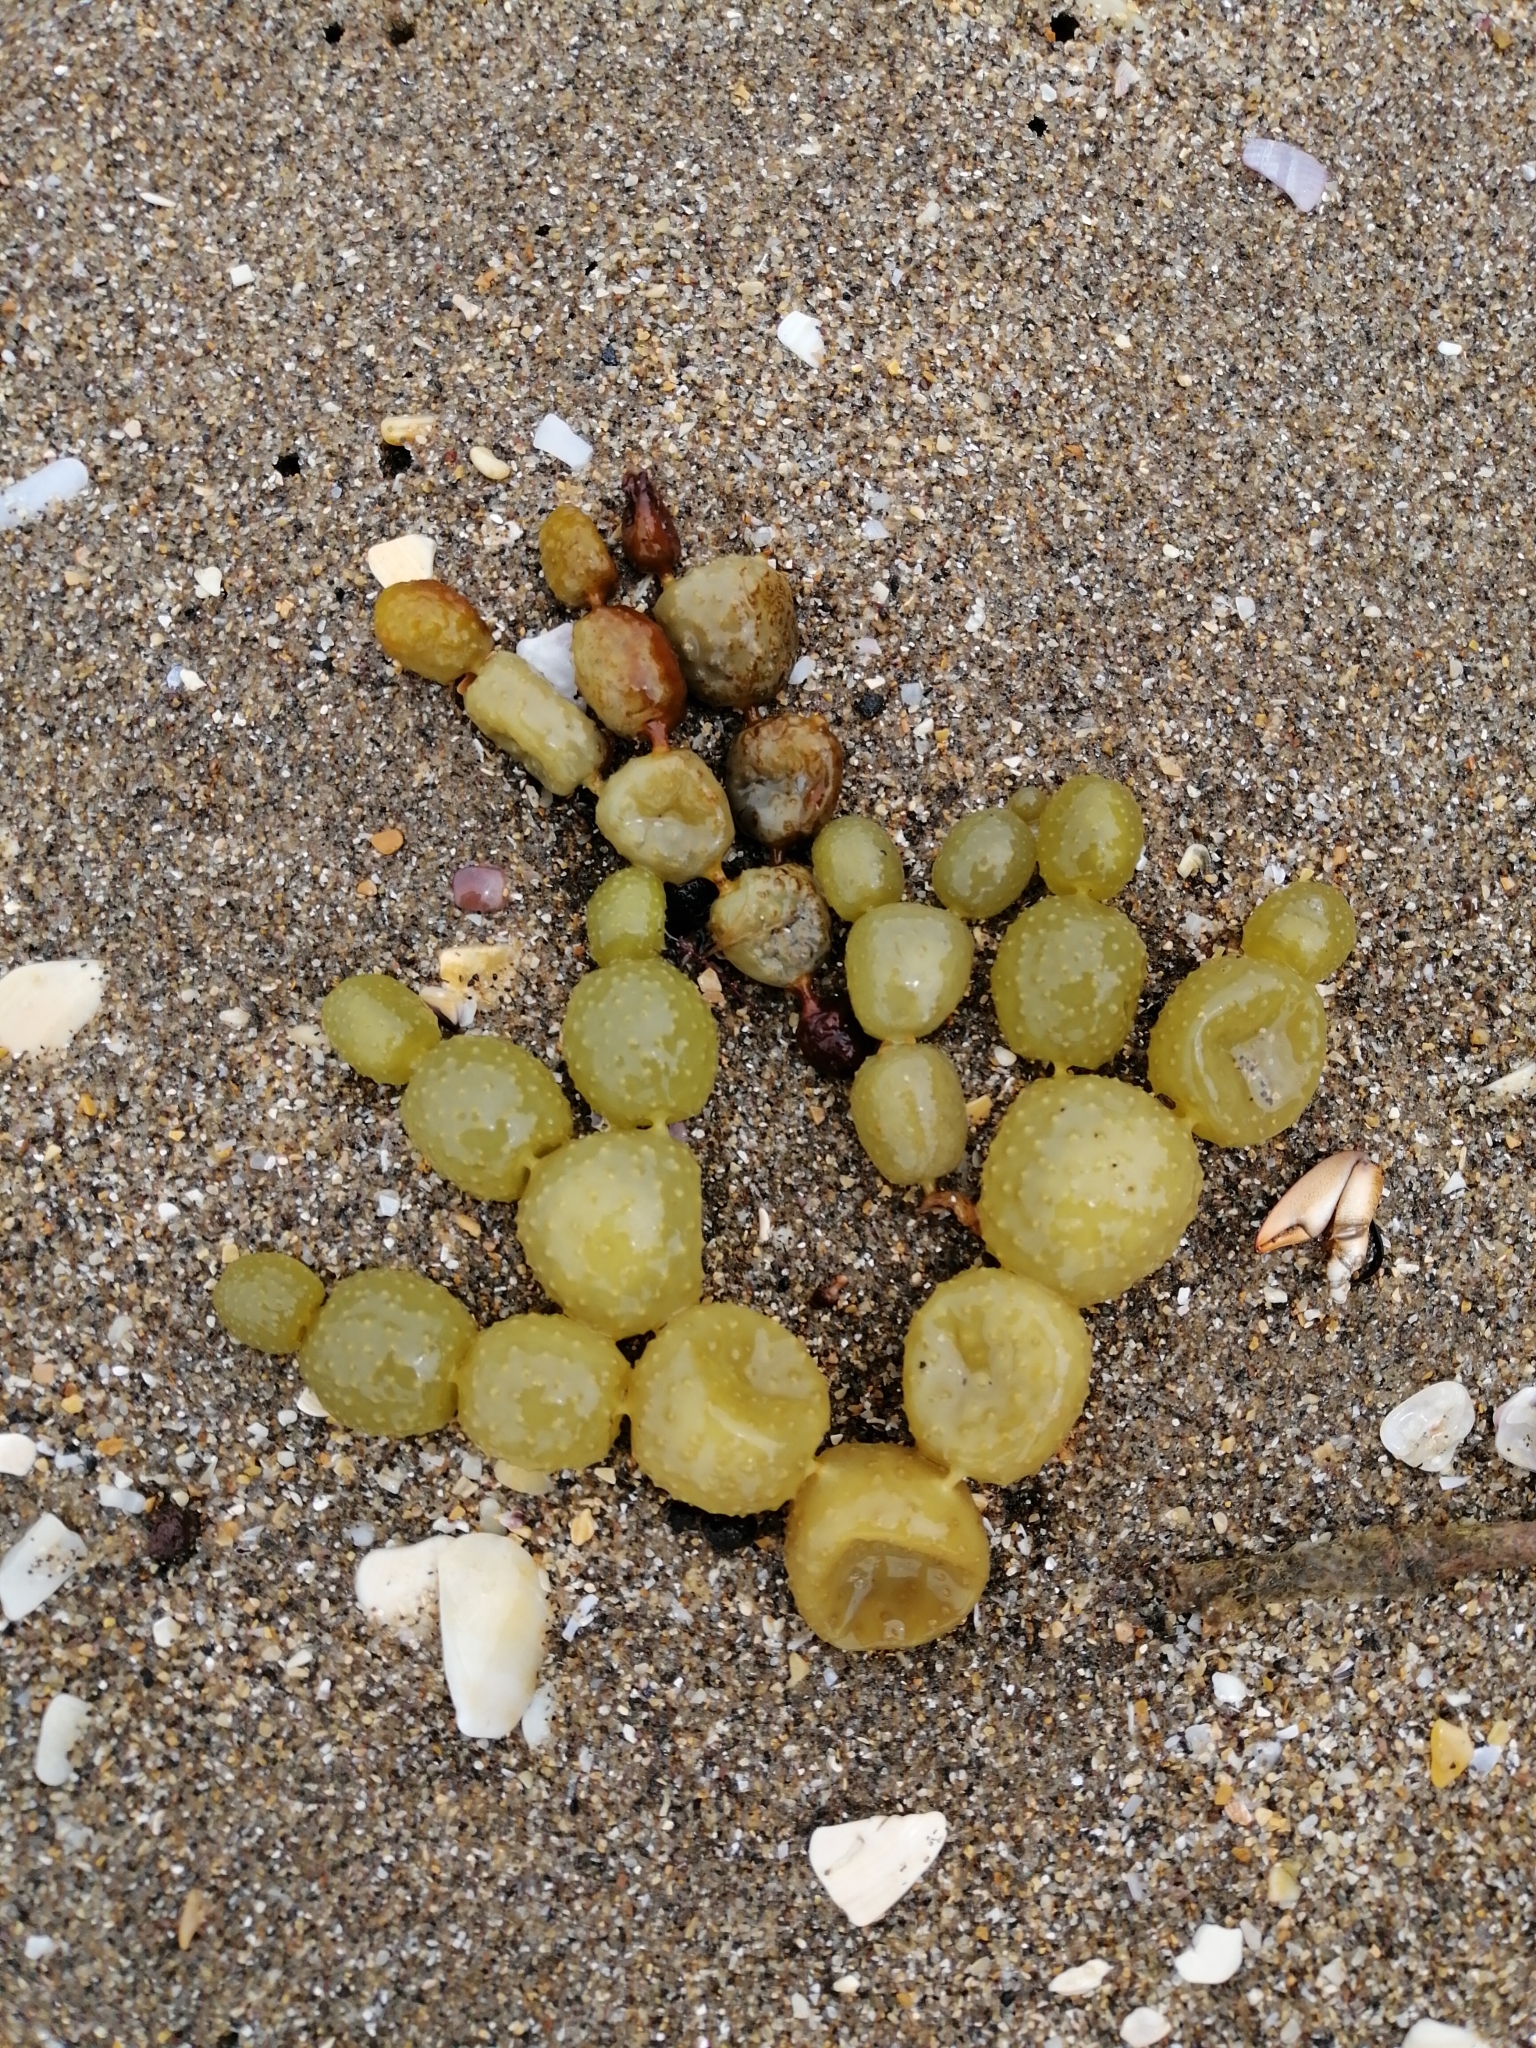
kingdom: Chromista
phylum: Ochrophyta
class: Phaeophyceae
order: Fucales
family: Hormosiraceae
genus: Hormosira
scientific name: Hormosira banksii
